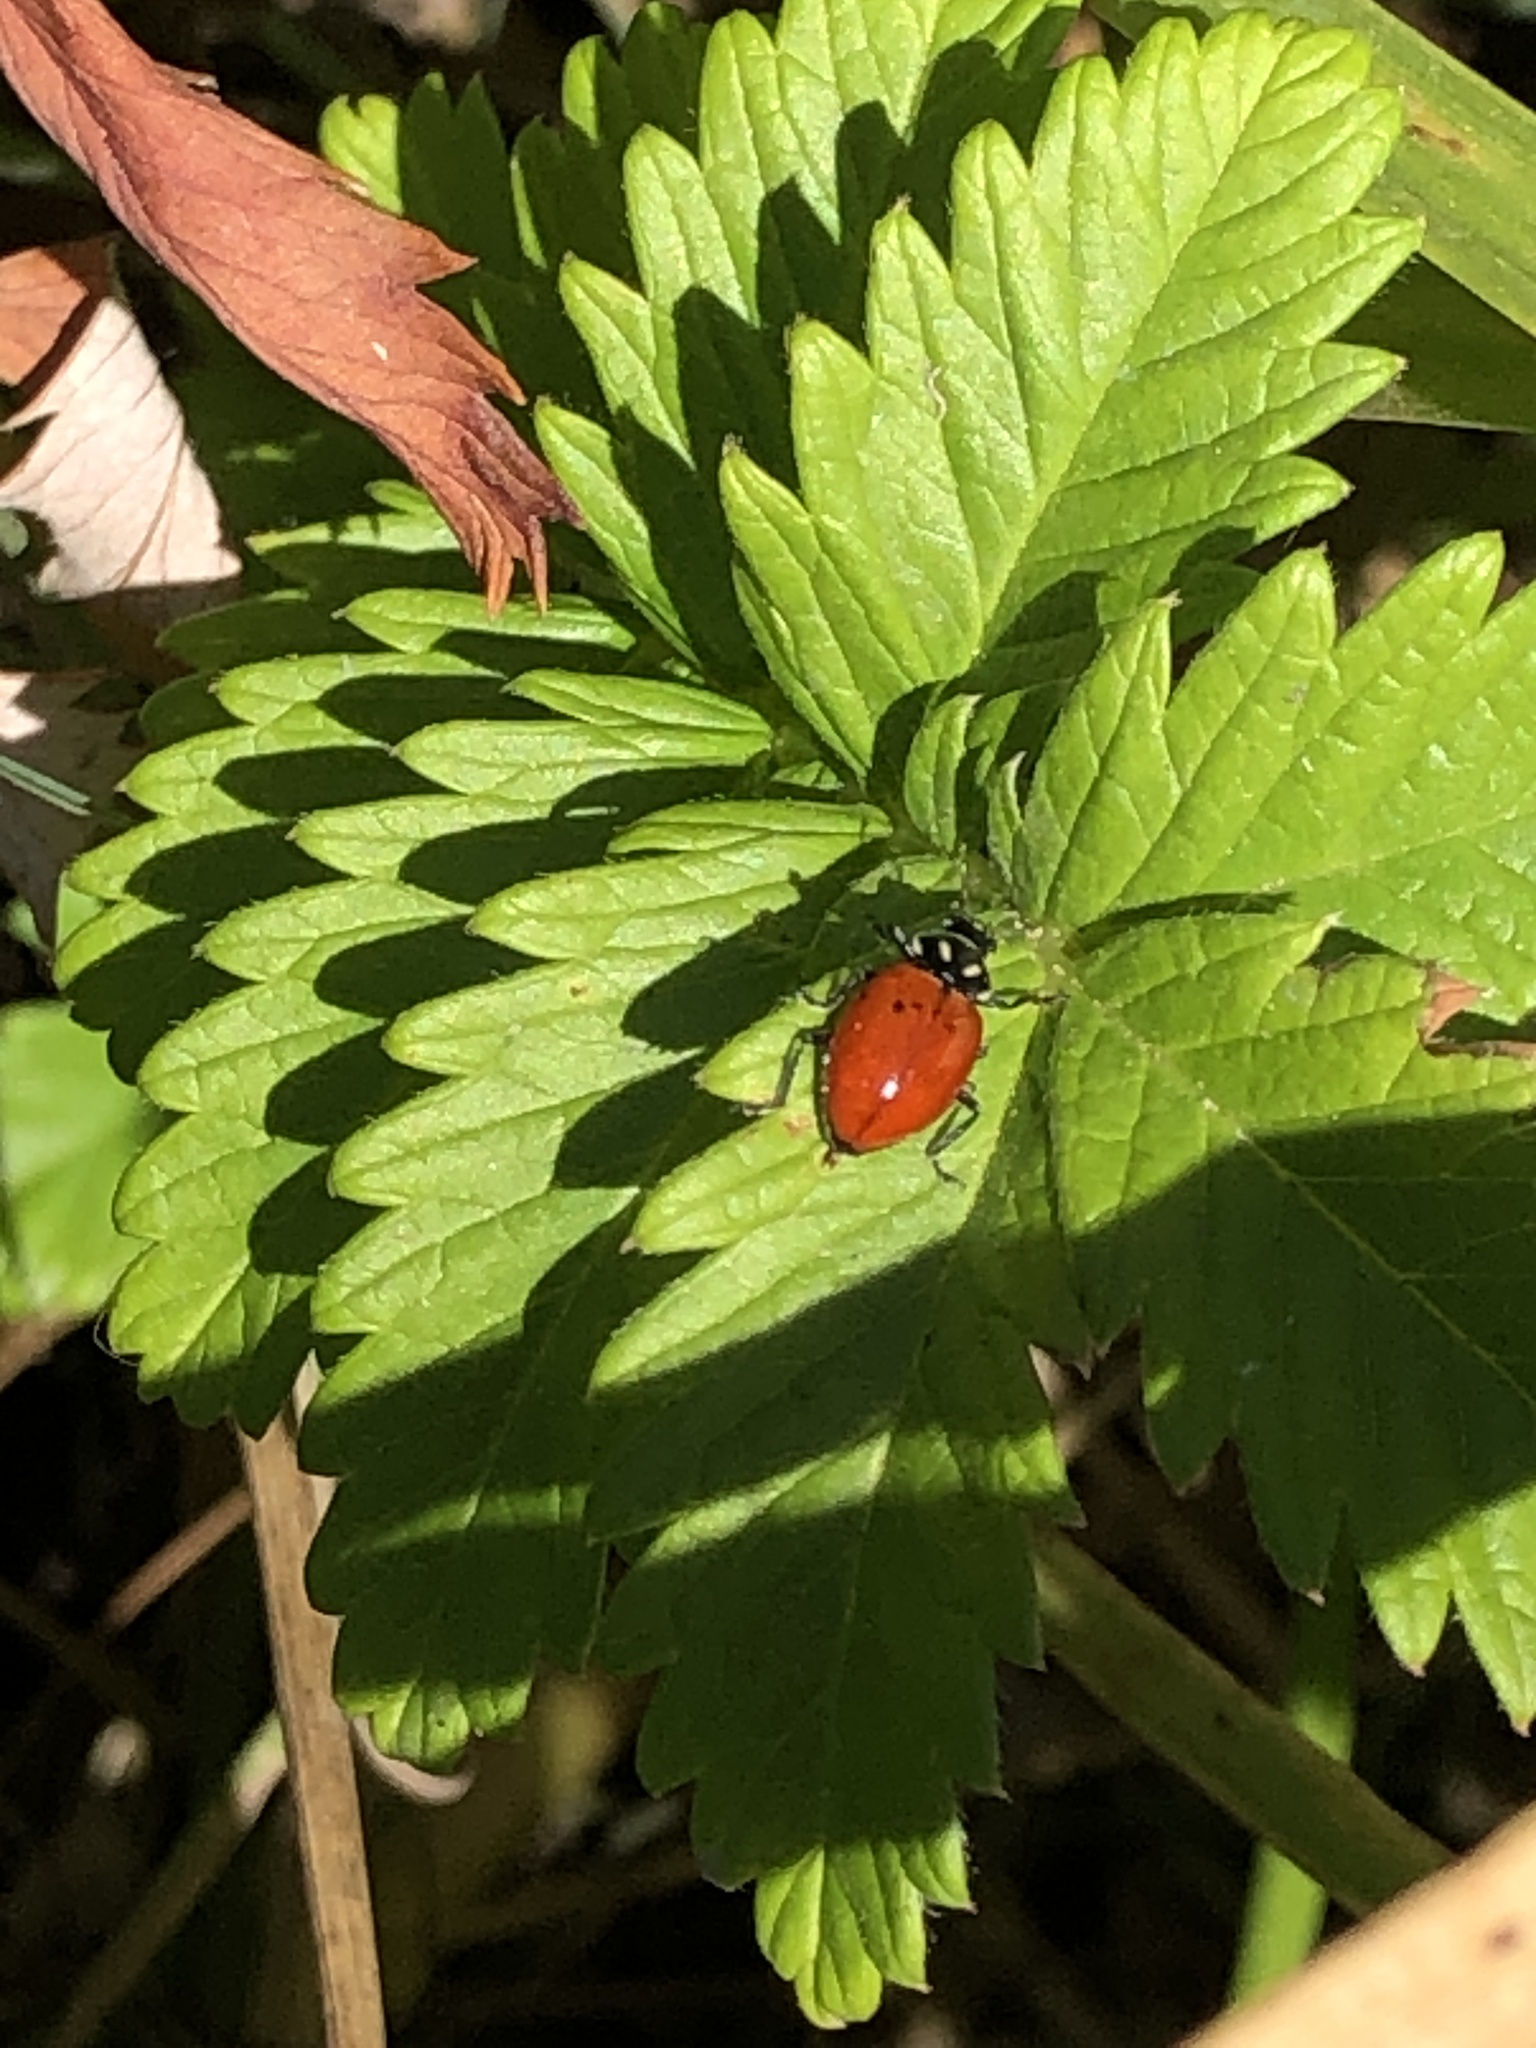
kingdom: Animalia
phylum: Arthropoda
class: Insecta
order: Coleoptera
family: Coccinellidae
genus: Hippodamia
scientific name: Hippodamia convergens
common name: Convergent lady beetle
